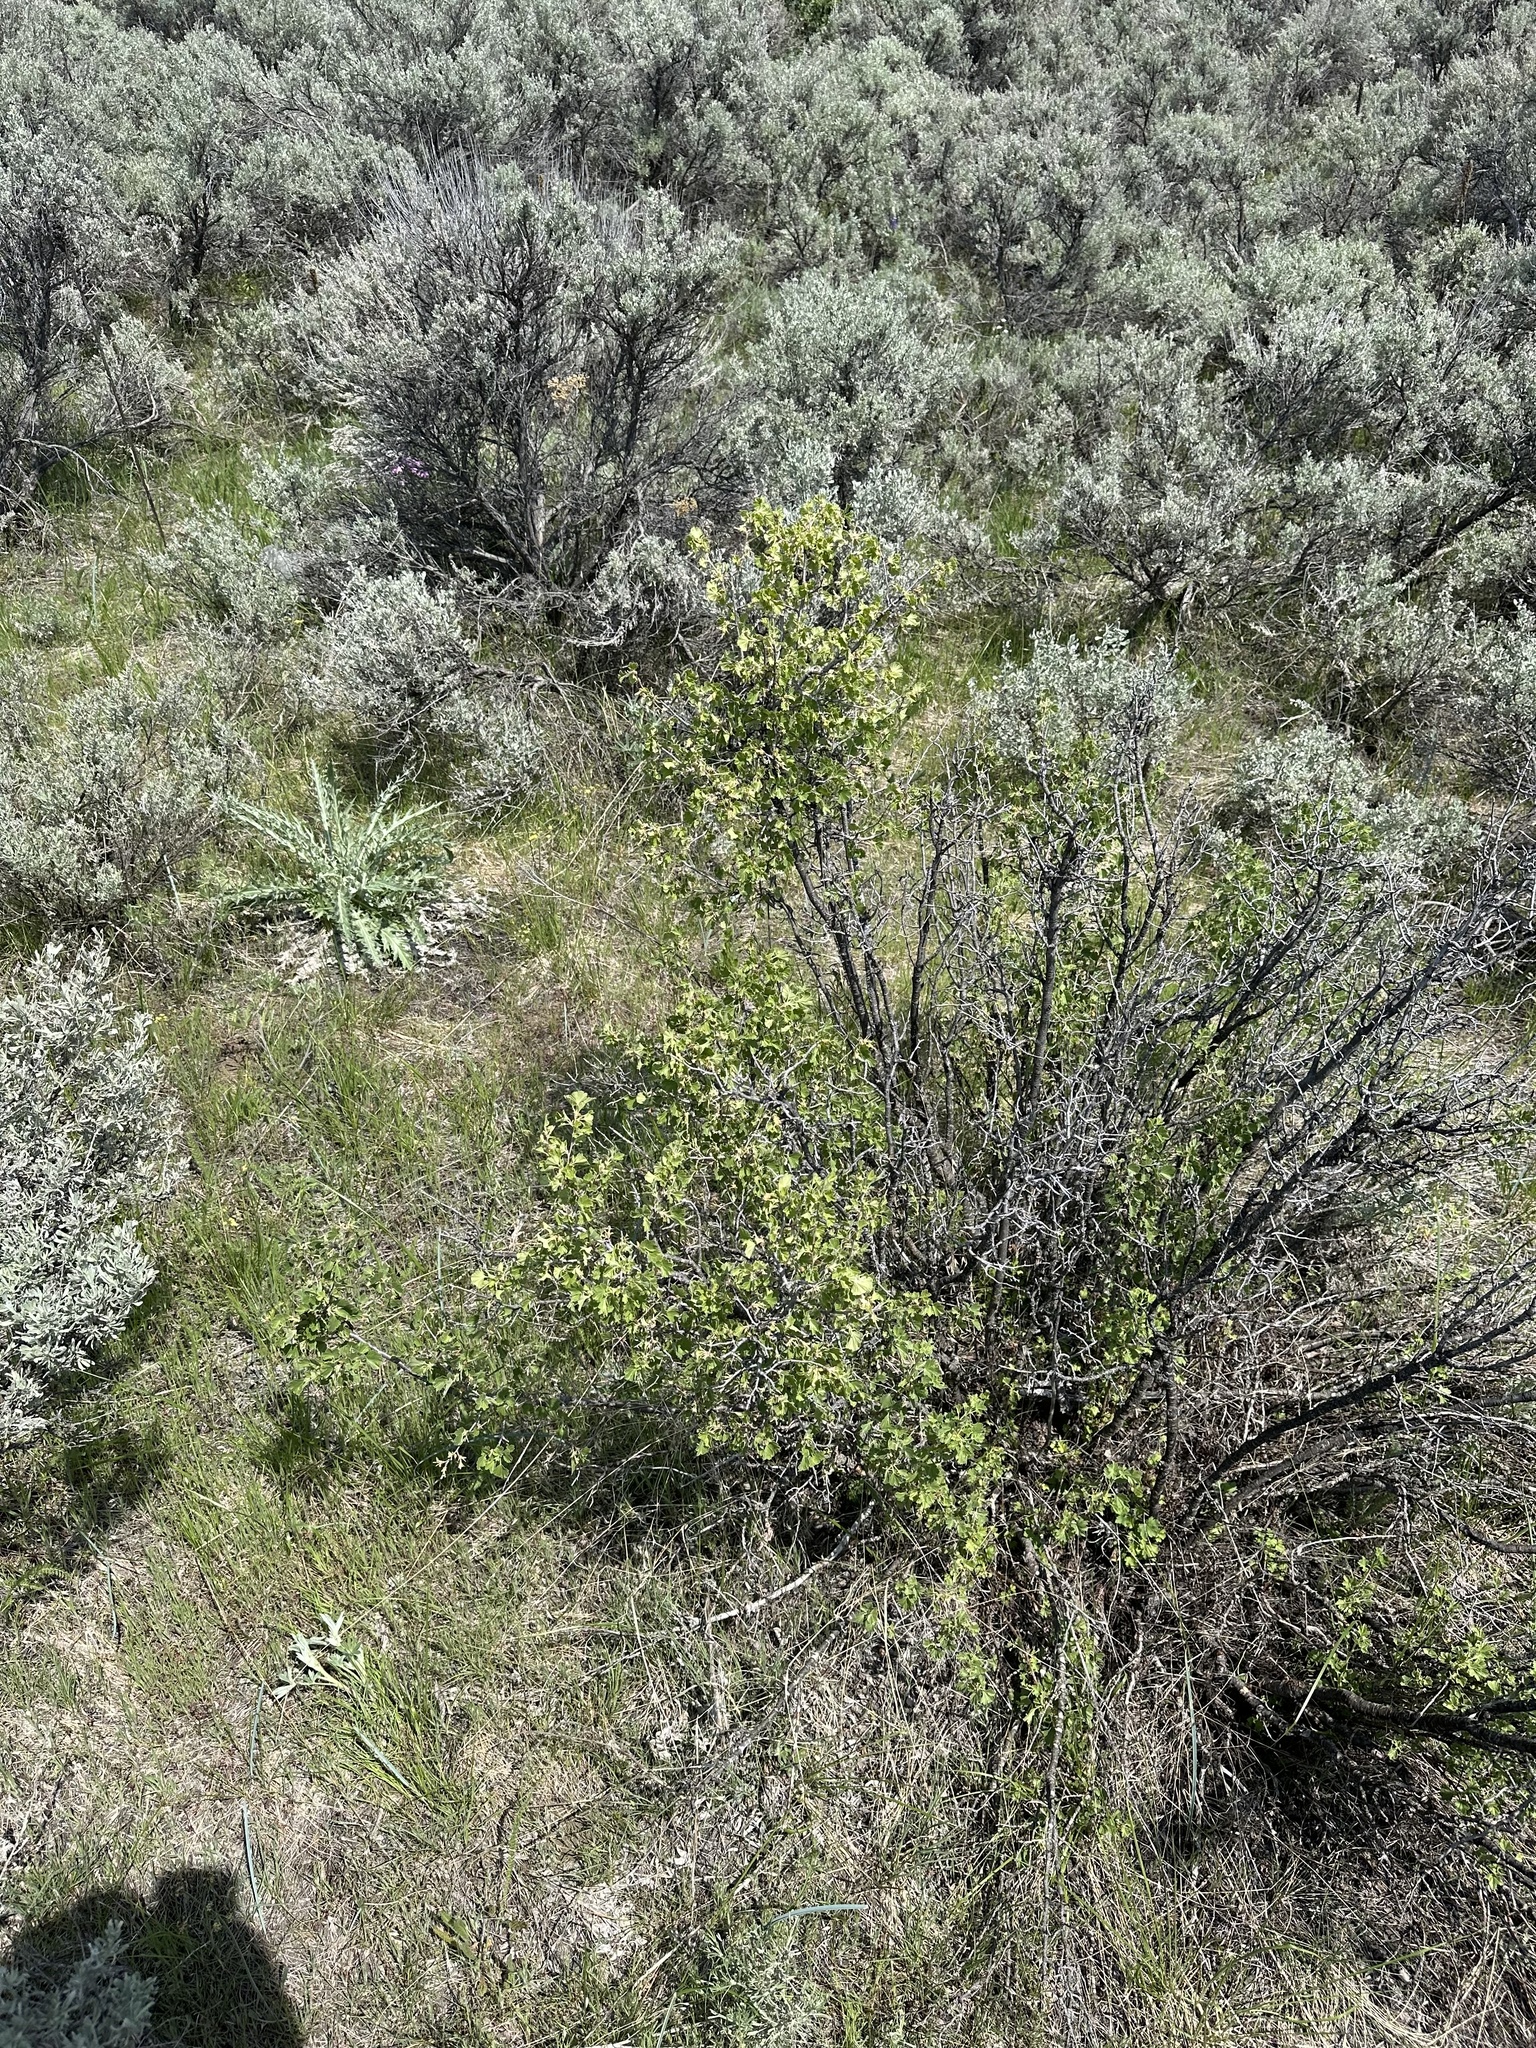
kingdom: Plantae
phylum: Tracheophyta
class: Magnoliopsida
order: Saxifragales
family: Grossulariaceae
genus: Ribes
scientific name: Ribes cereum
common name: Wax currant
